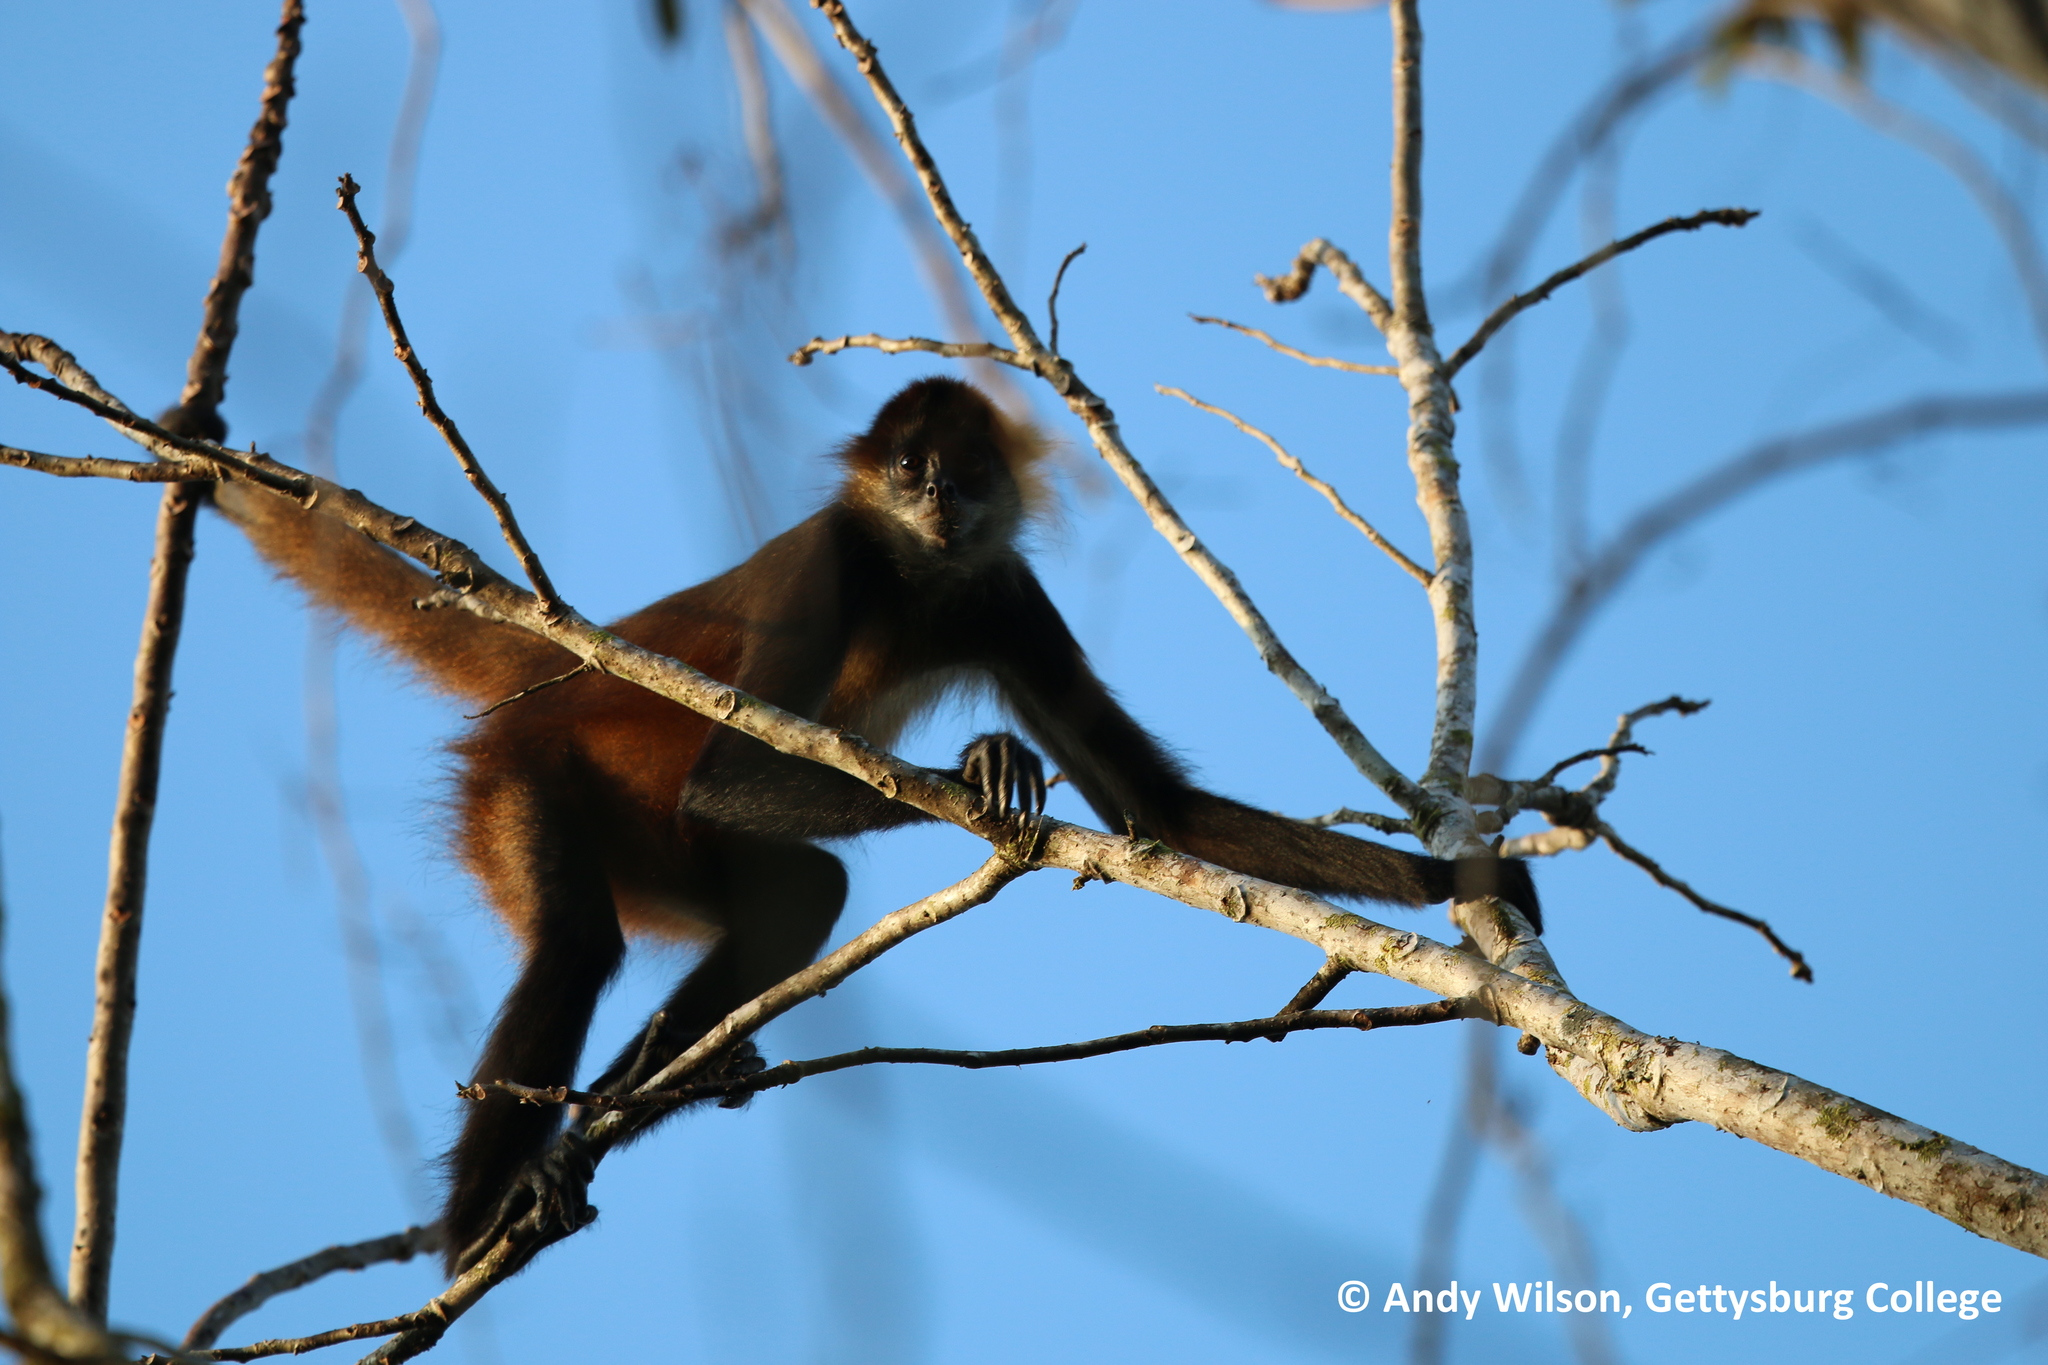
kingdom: Animalia
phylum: Chordata
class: Mammalia
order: Primates
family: Atelidae
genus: Ateles
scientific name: Ateles geoffroyi
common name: Black-handed spider monkey
